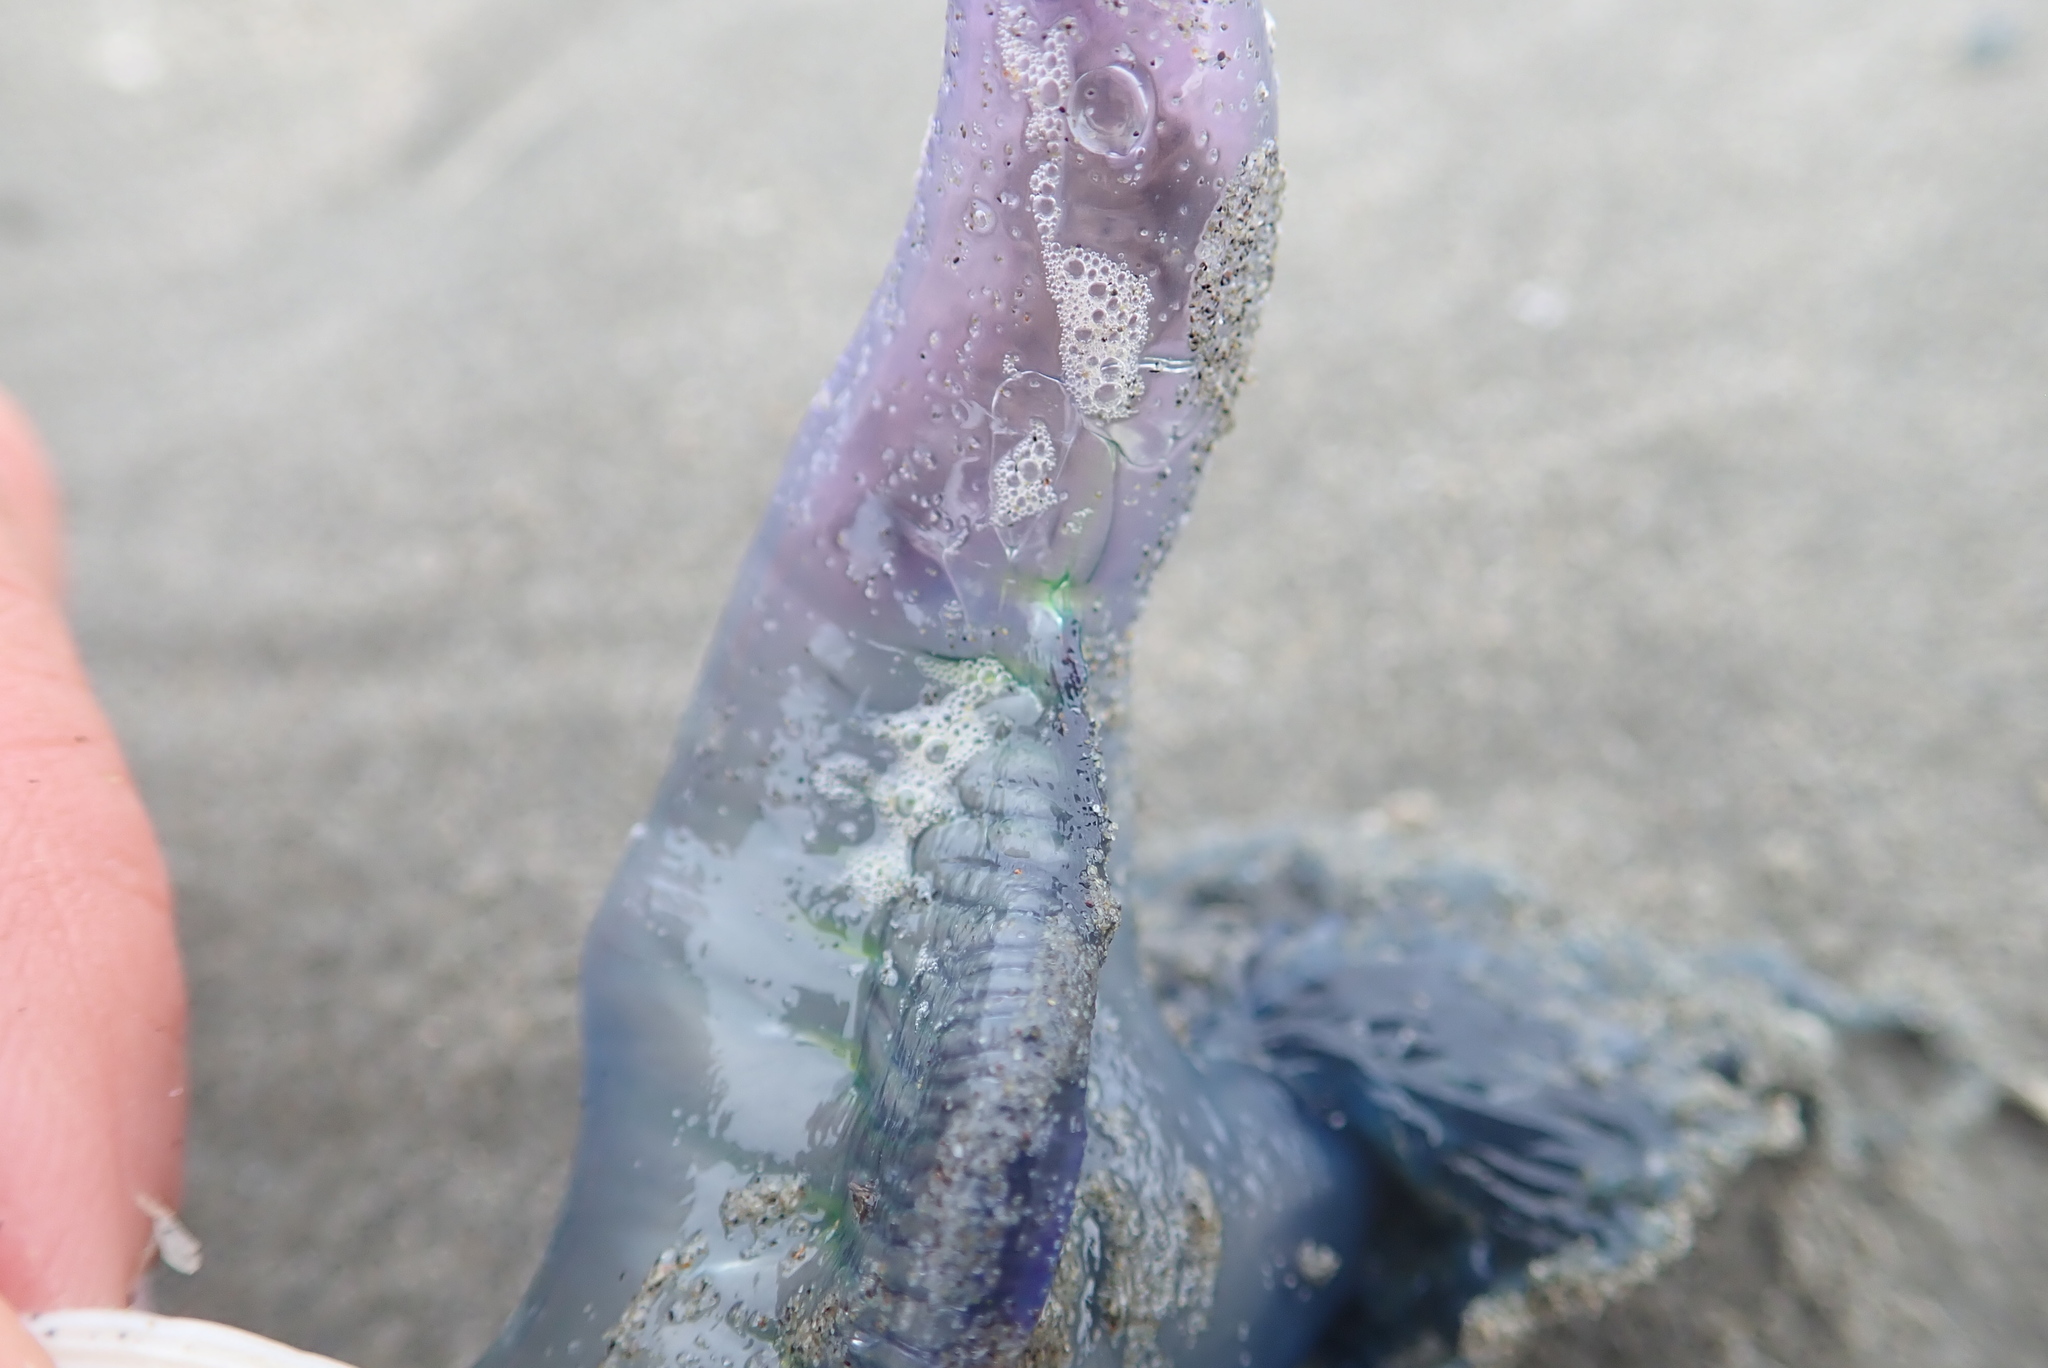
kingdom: Animalia
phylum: Cnidaria
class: Hydrozoa
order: Siphonophorae
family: Physaliidae
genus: Physalia
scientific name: Physalia physalis
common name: Portuguese man-of-war
